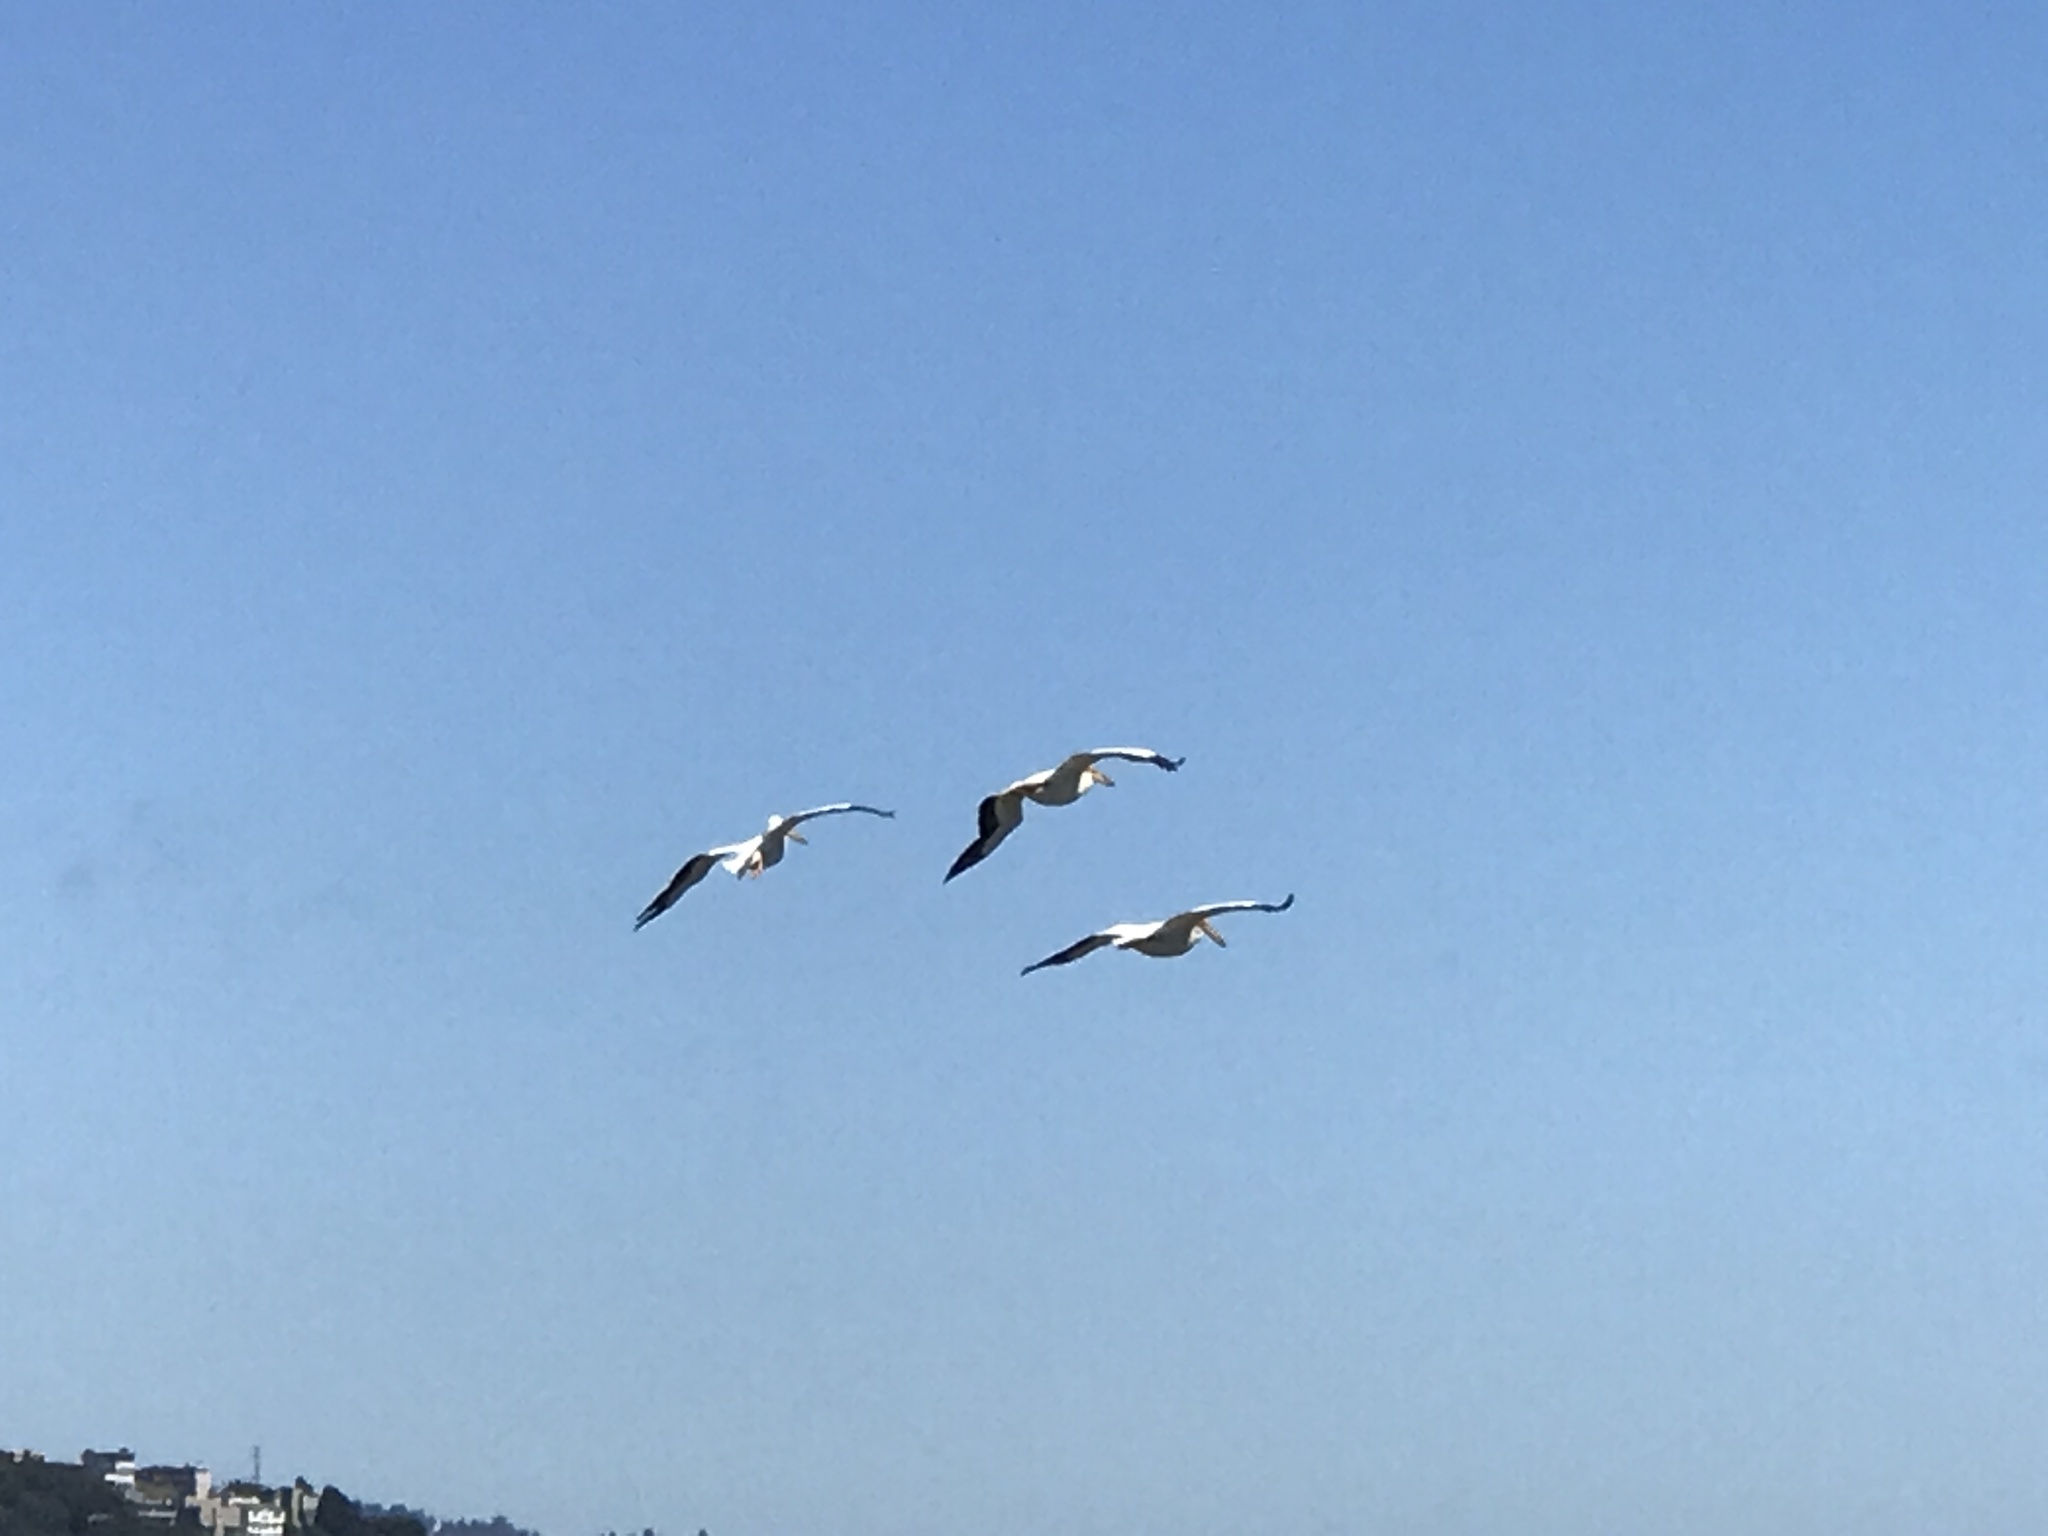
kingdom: Animalia
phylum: Chordata
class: Aves
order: Pelecaniformes
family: Pelecanidae
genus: Pelecanus
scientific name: Pelecanus erythrorhynchos
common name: American white pelican
